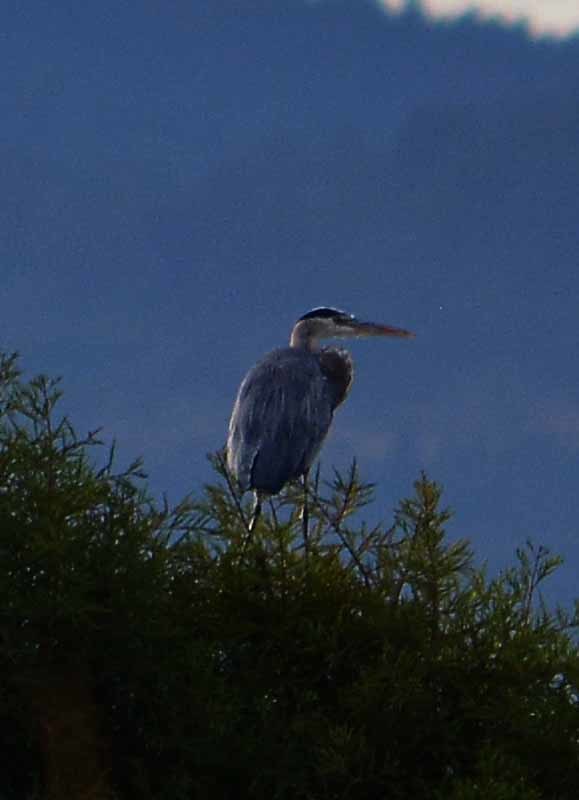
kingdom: Animalia
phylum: Chordata
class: Aves
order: Pelecaniformes
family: Ardeidae
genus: Ardea
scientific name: Ardea herodias
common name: Great blue heron
